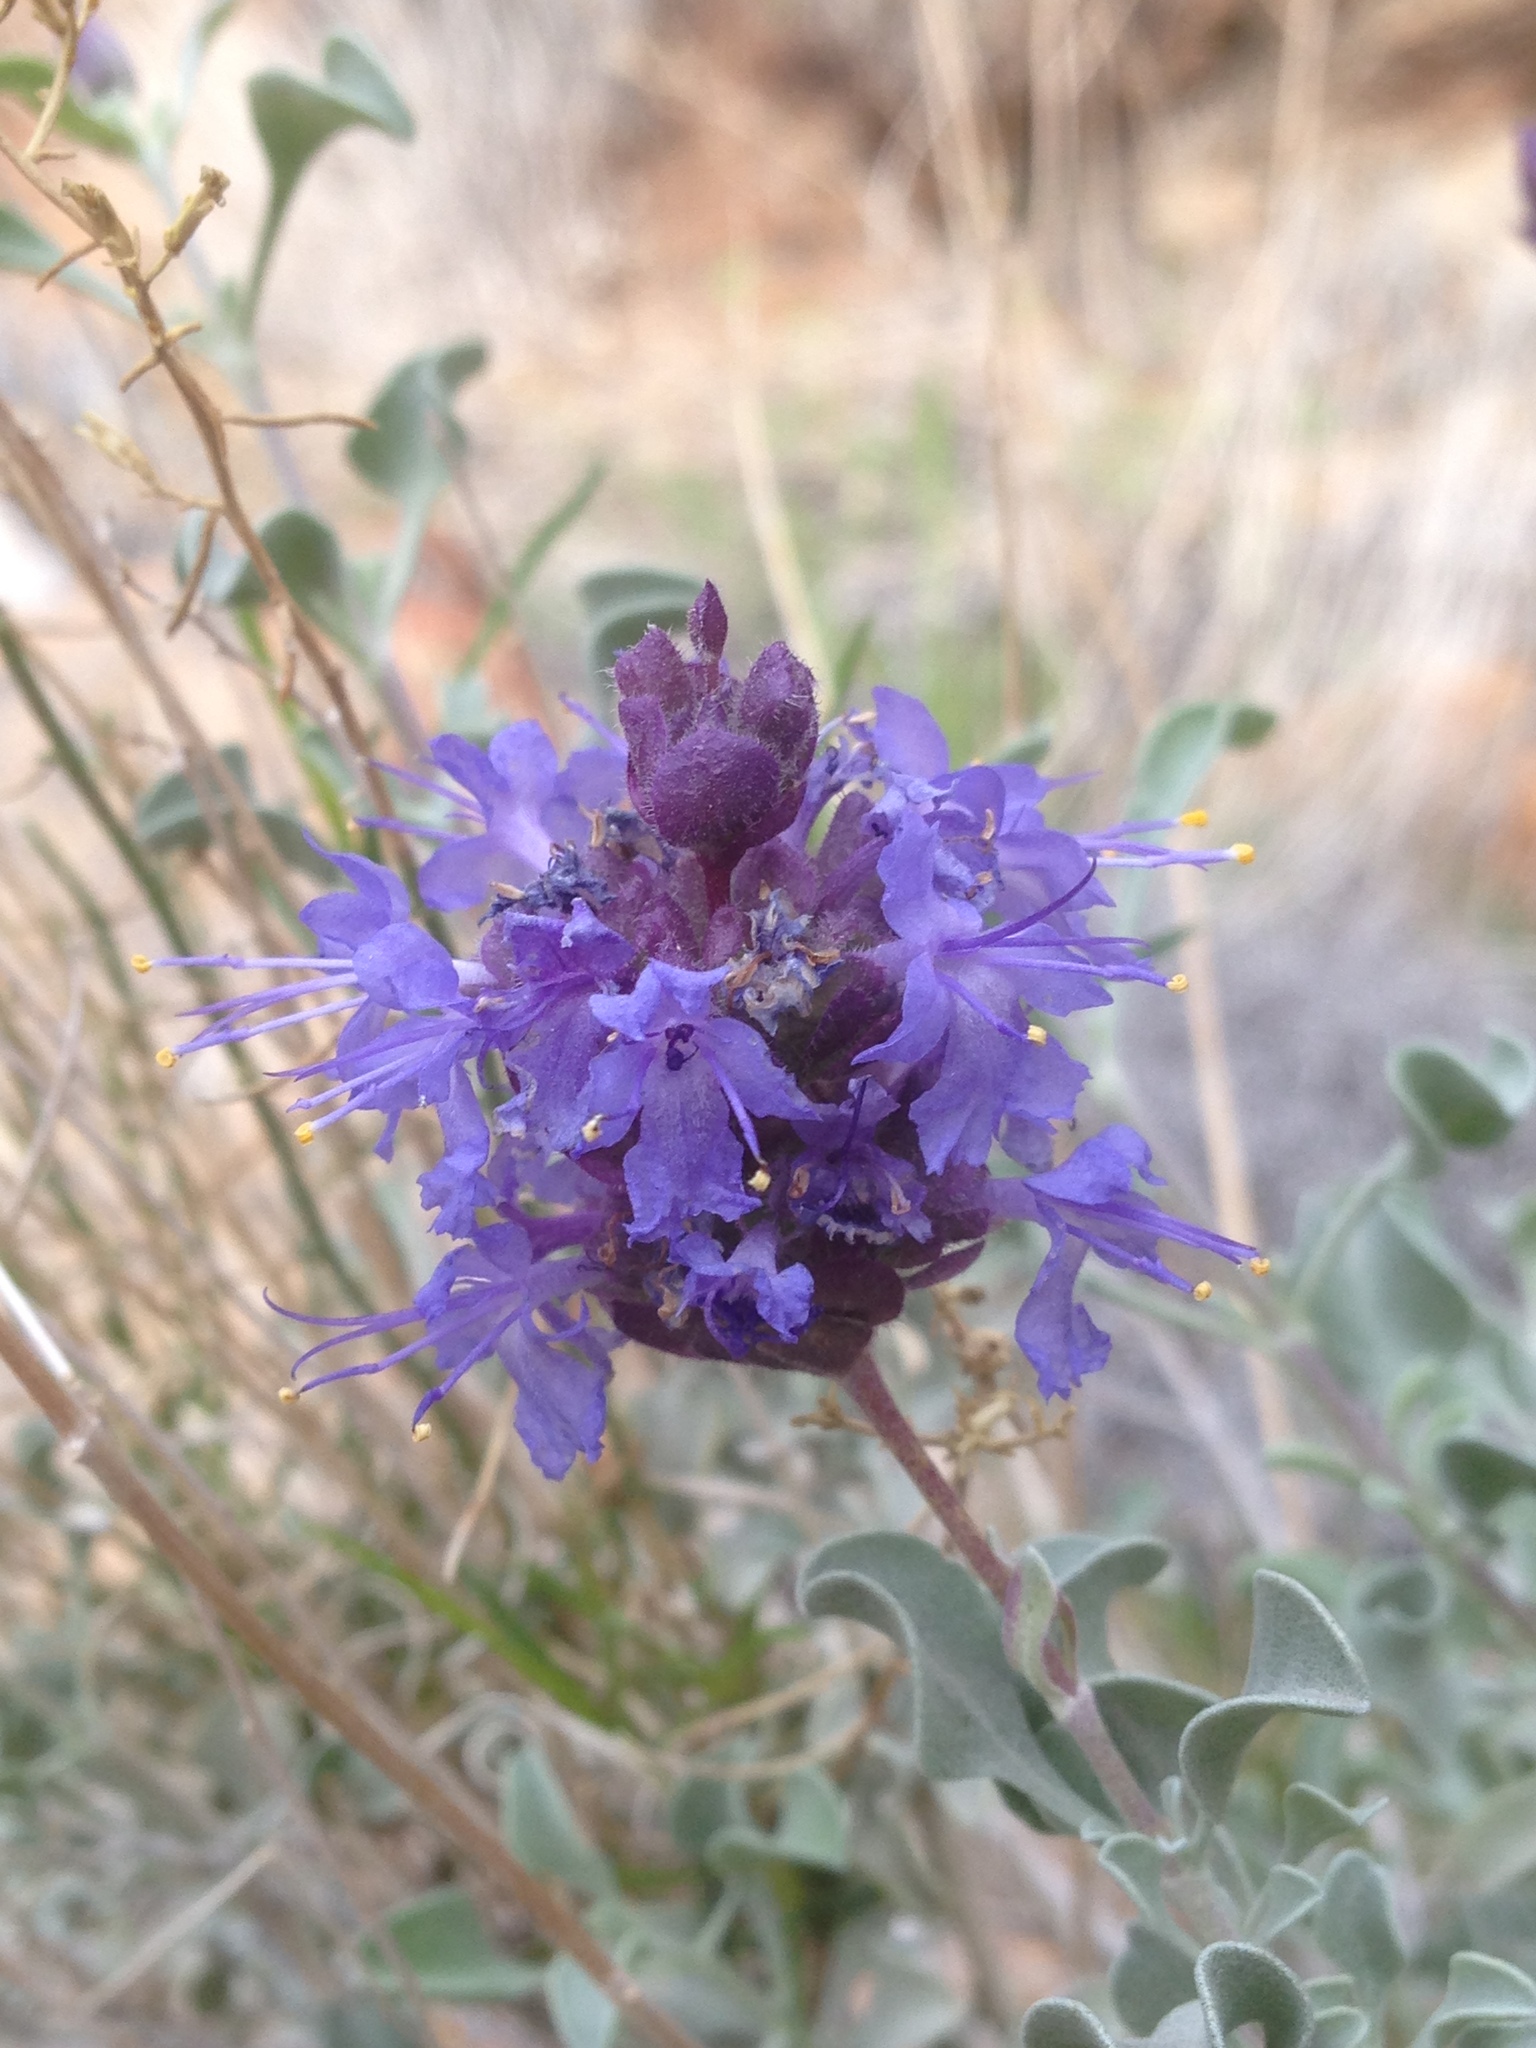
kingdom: Plantae
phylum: Tracheophyta
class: Magnoliopsida
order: Lamiales
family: Lamiaceae
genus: Salvia
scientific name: Salvia dorrii
